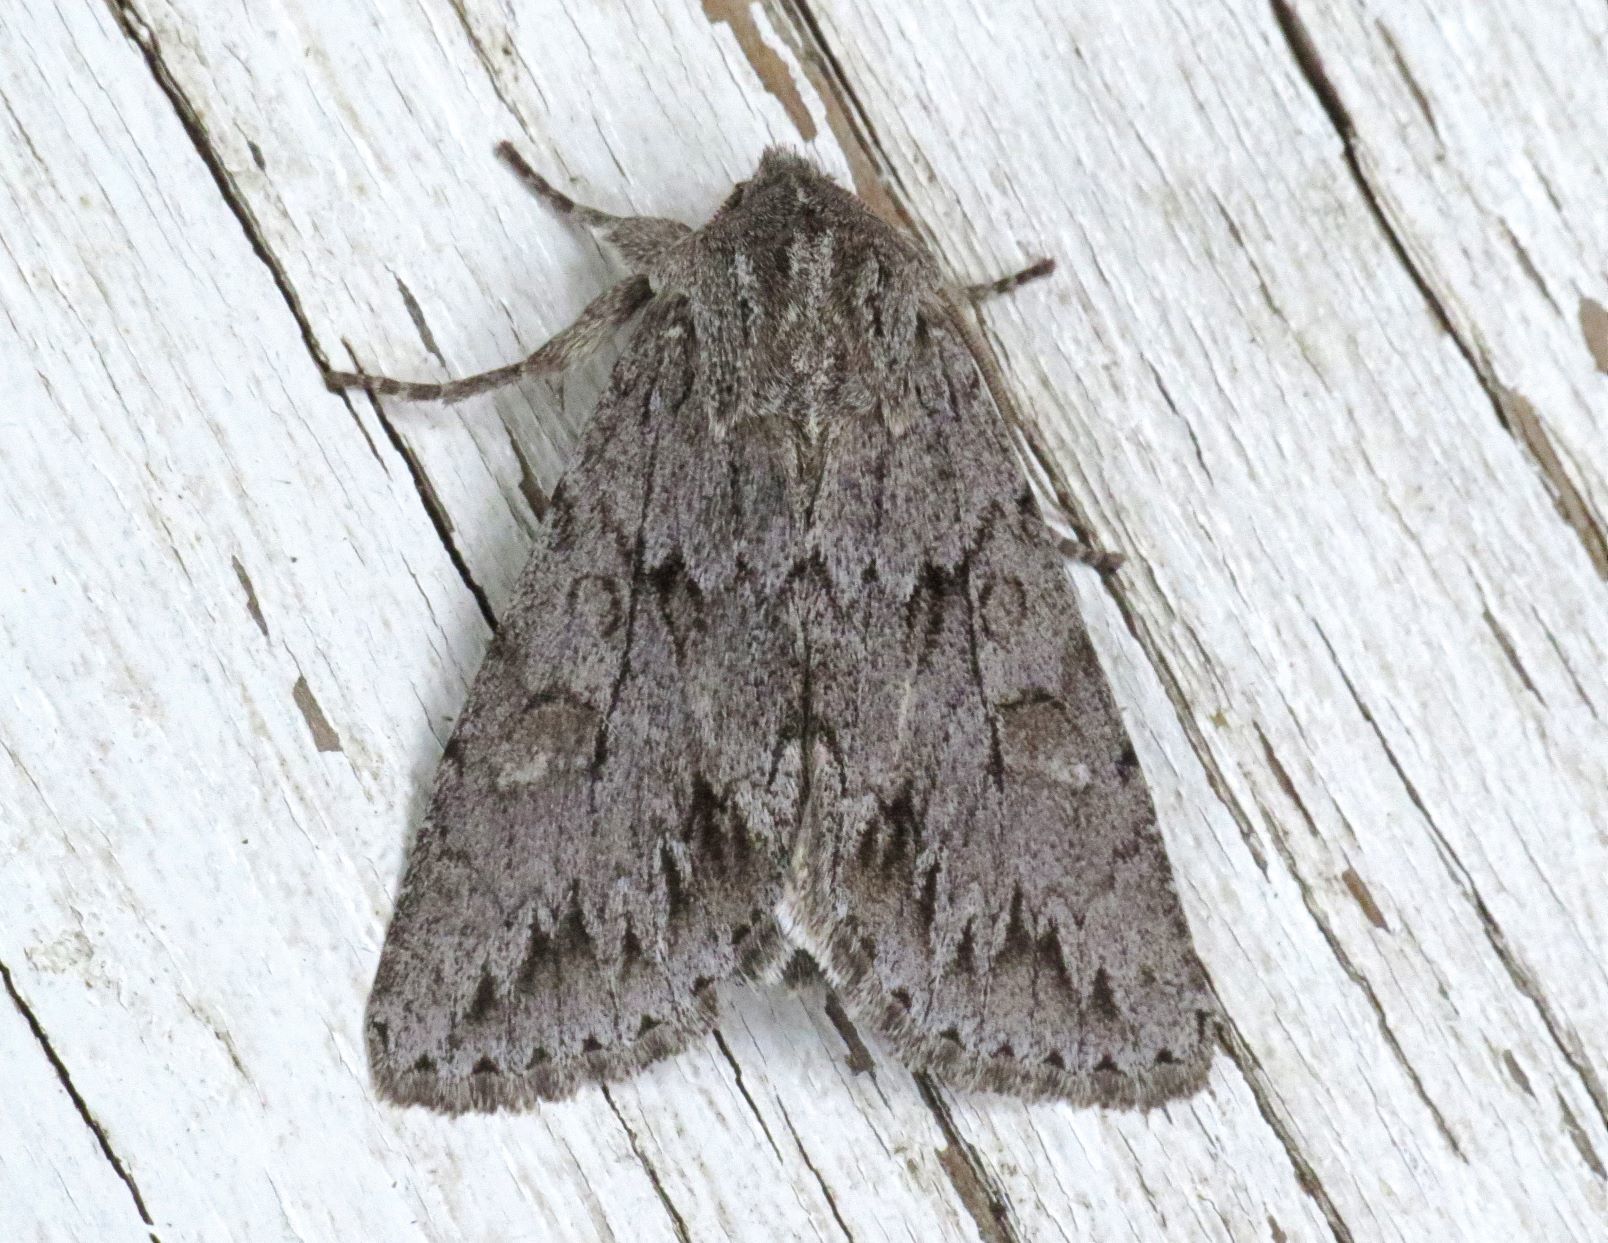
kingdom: Animalia
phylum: Arthropoda
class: Insecta
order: Lepidoptera
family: Noctuidae
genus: Andropolia
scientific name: Andropolia contacta
